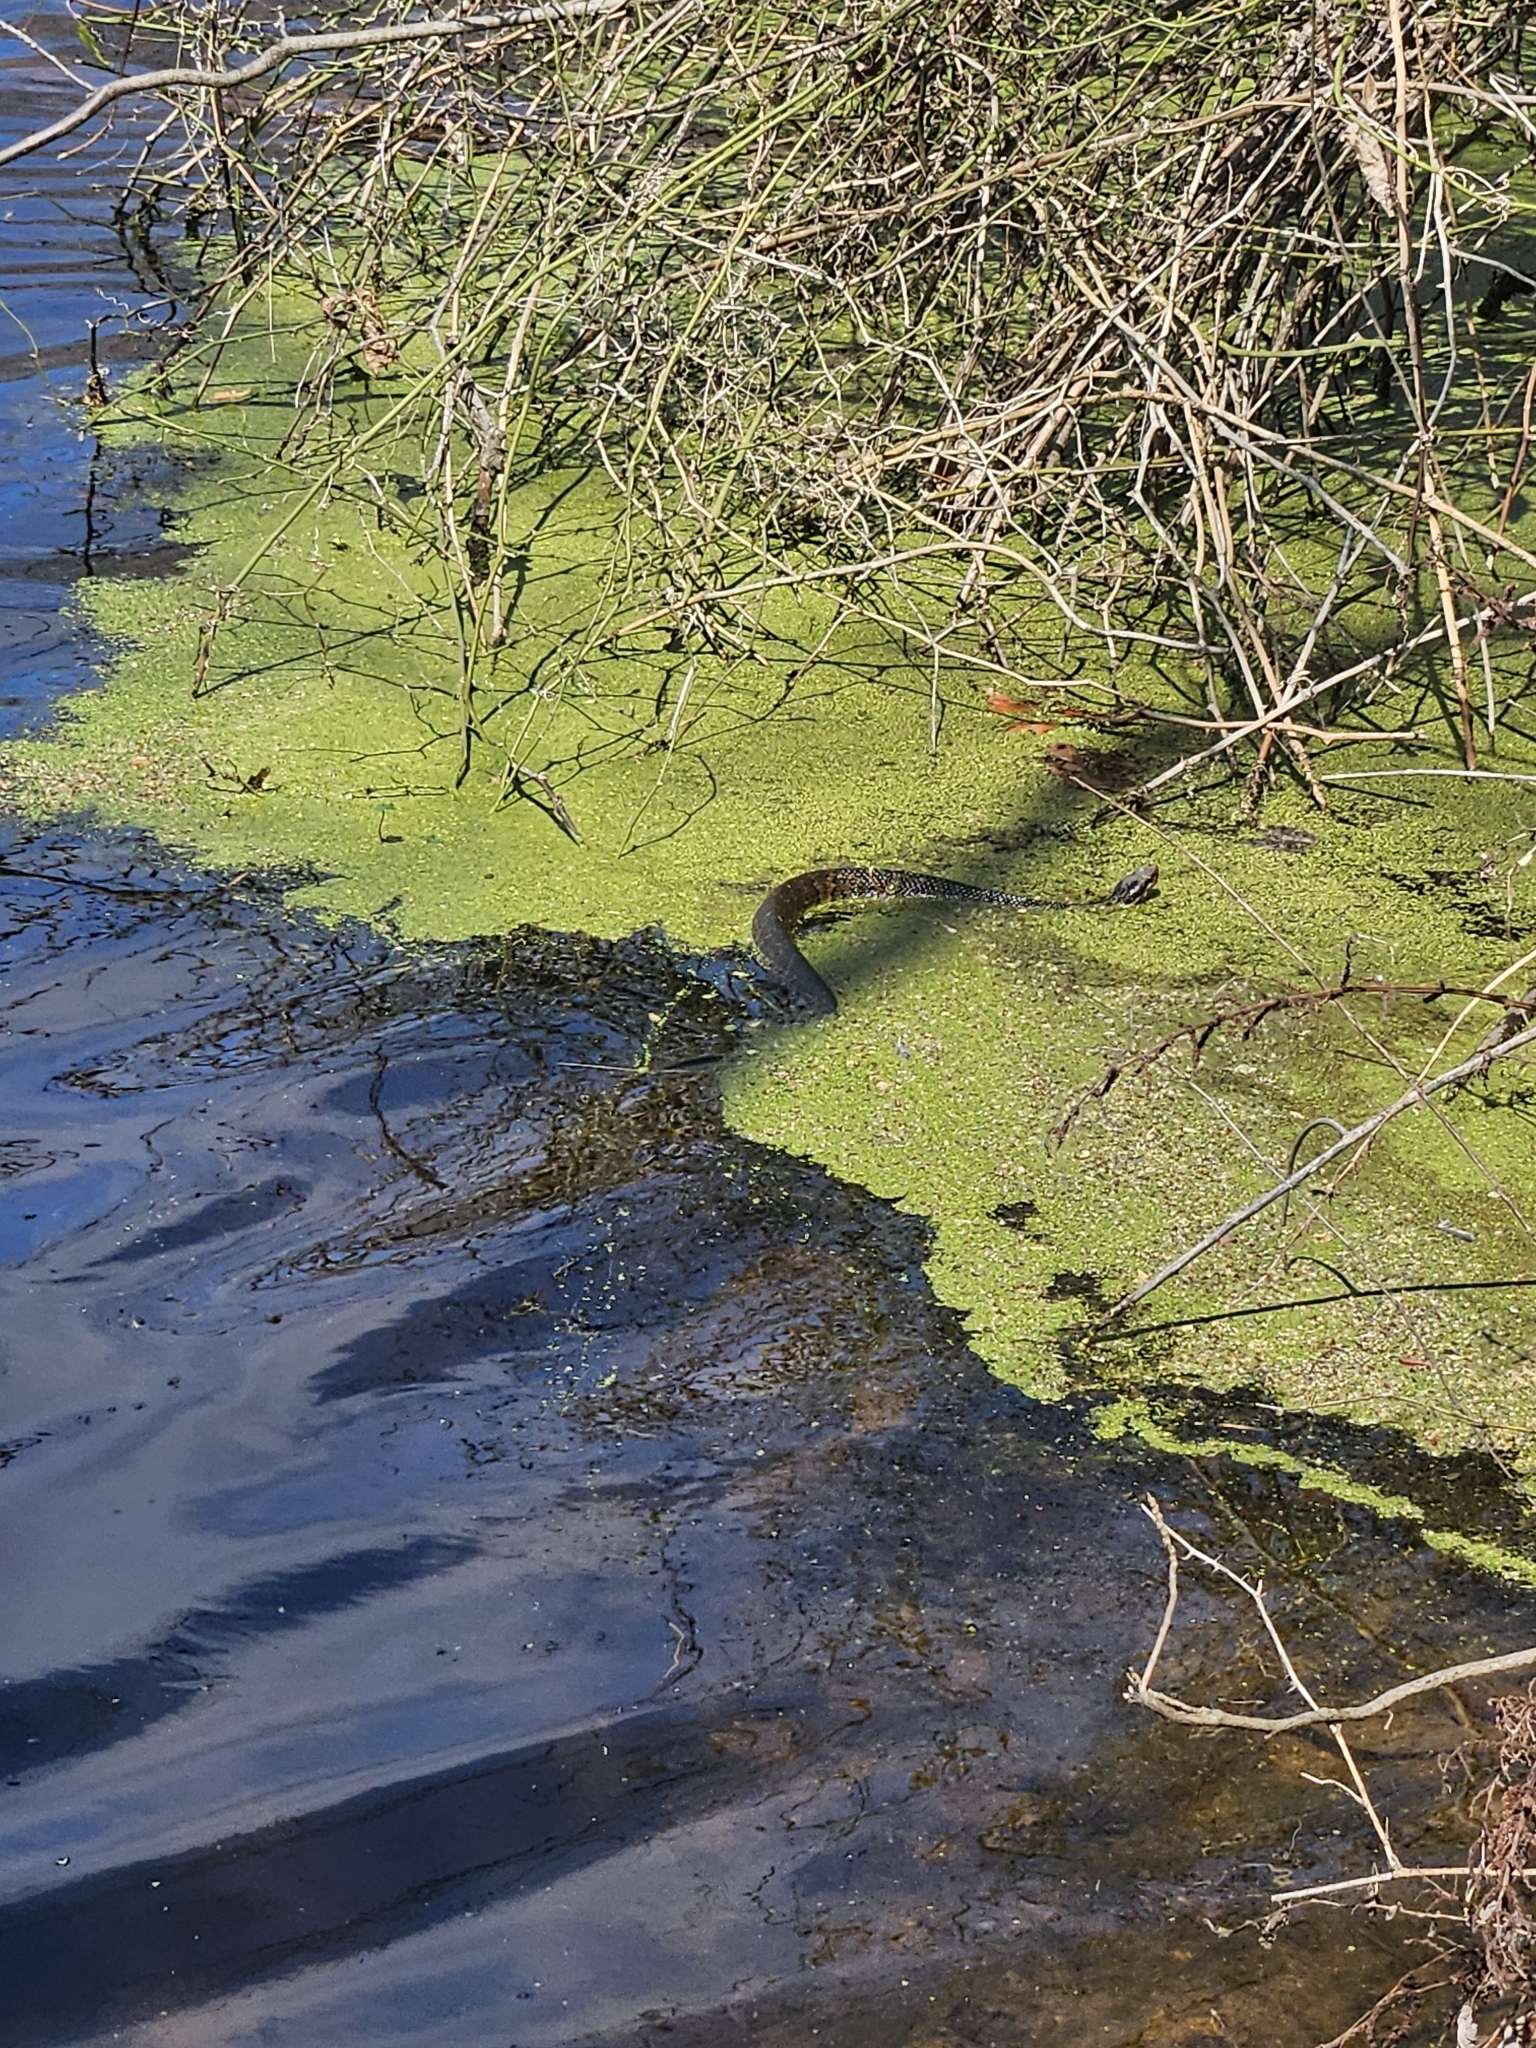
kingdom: Animalia
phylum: Chordata
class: Squamata
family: Viperidae
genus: Agkistrodon
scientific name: Agkistrodon piscivorus
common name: Cottonmouth
